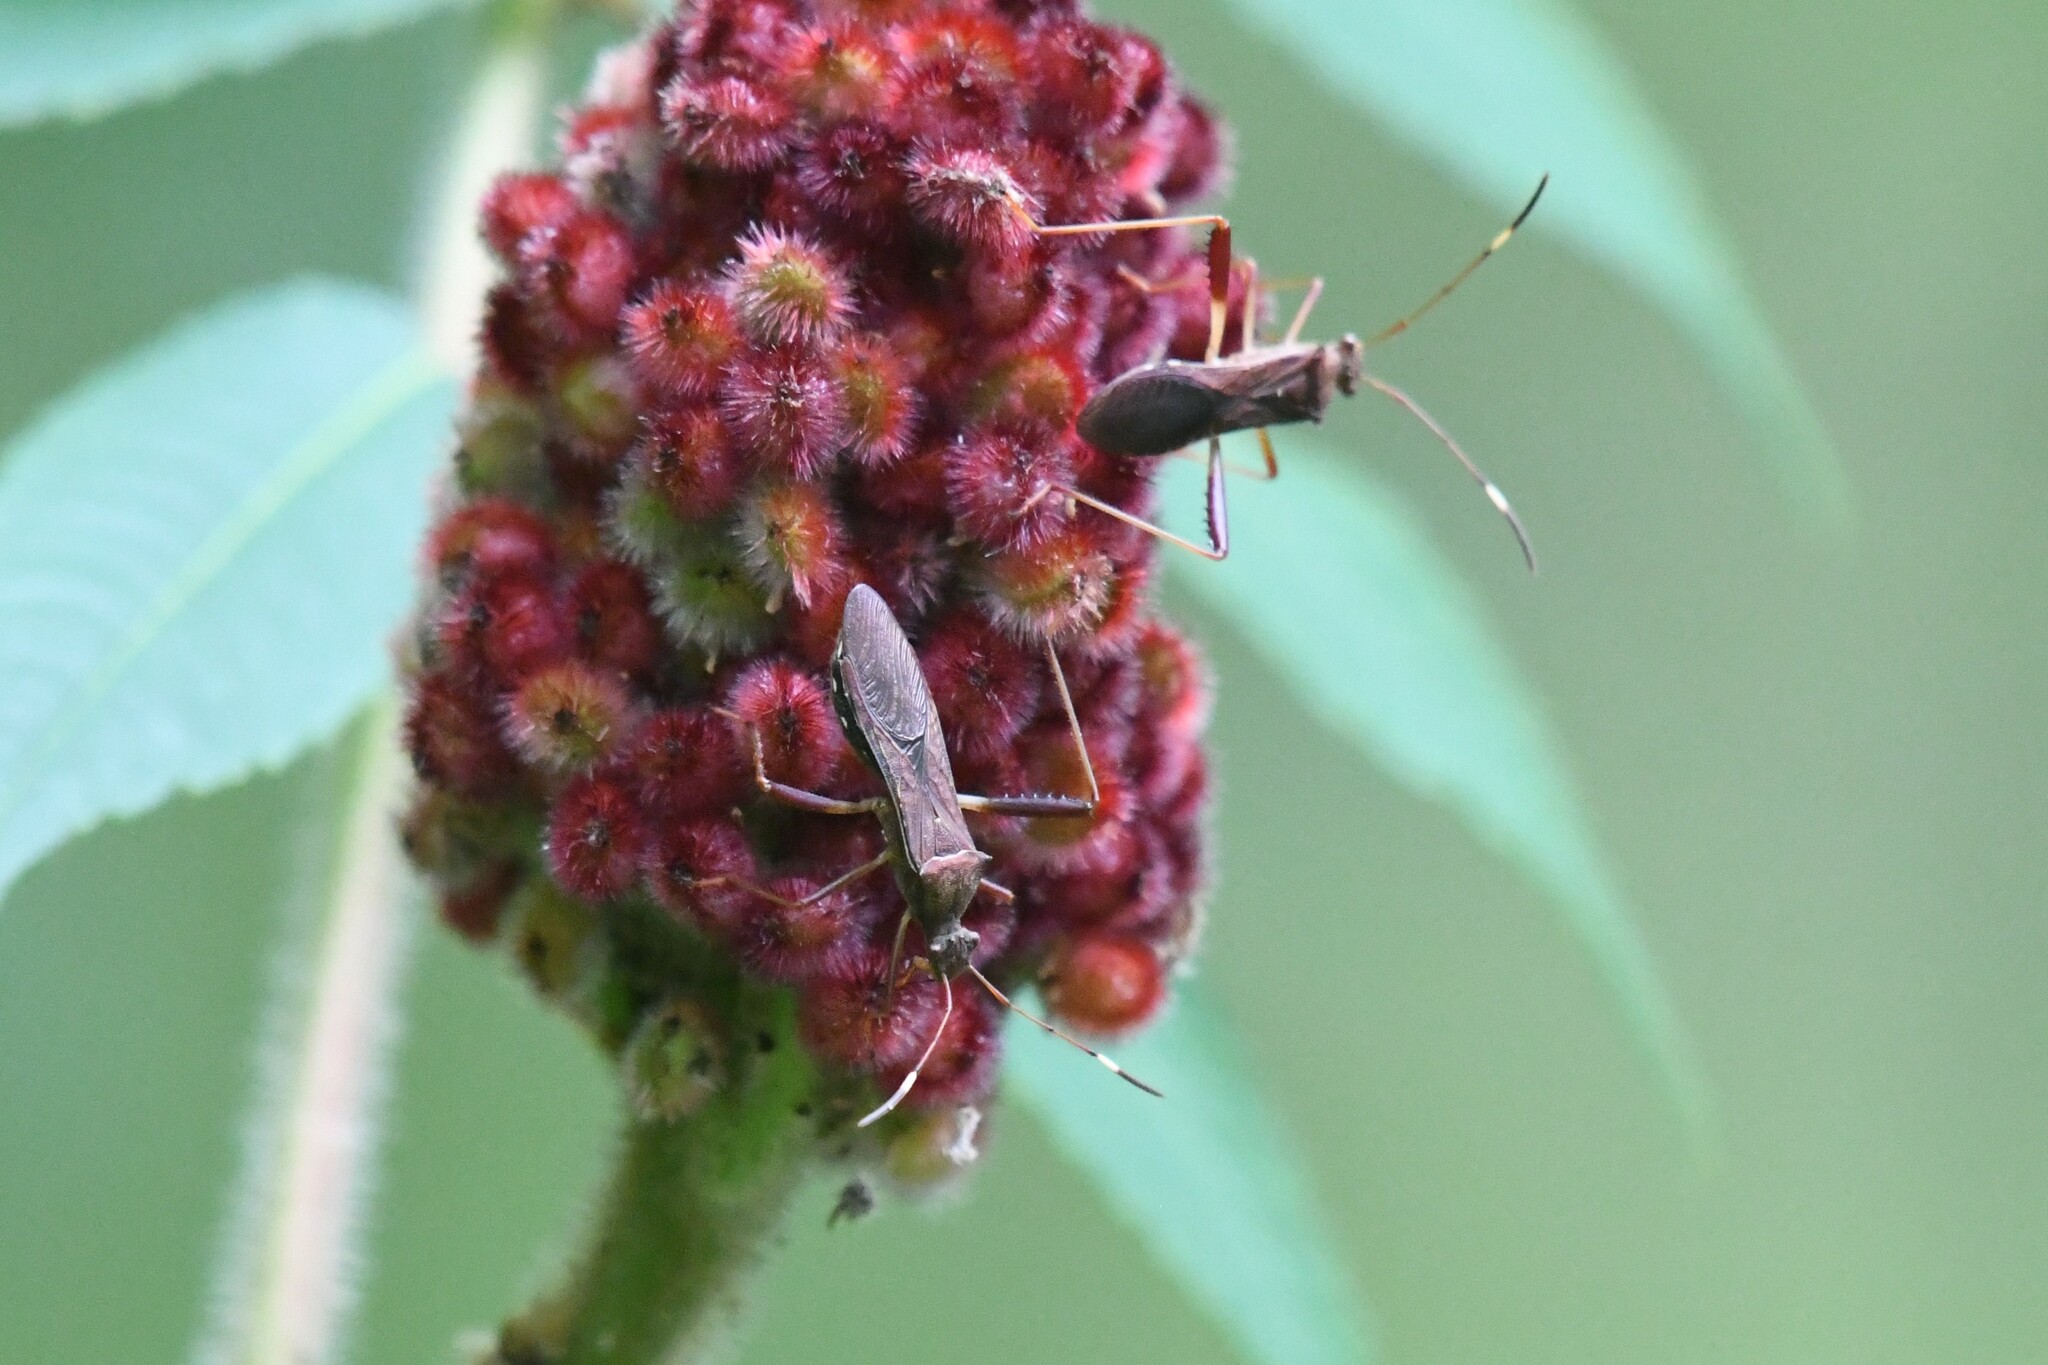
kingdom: Animalia
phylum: Arthropoda
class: Insecta
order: Hemiptera
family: Alydidae
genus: Megalotomus
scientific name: Megalotomus quinquespinosus
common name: Lupine bug
